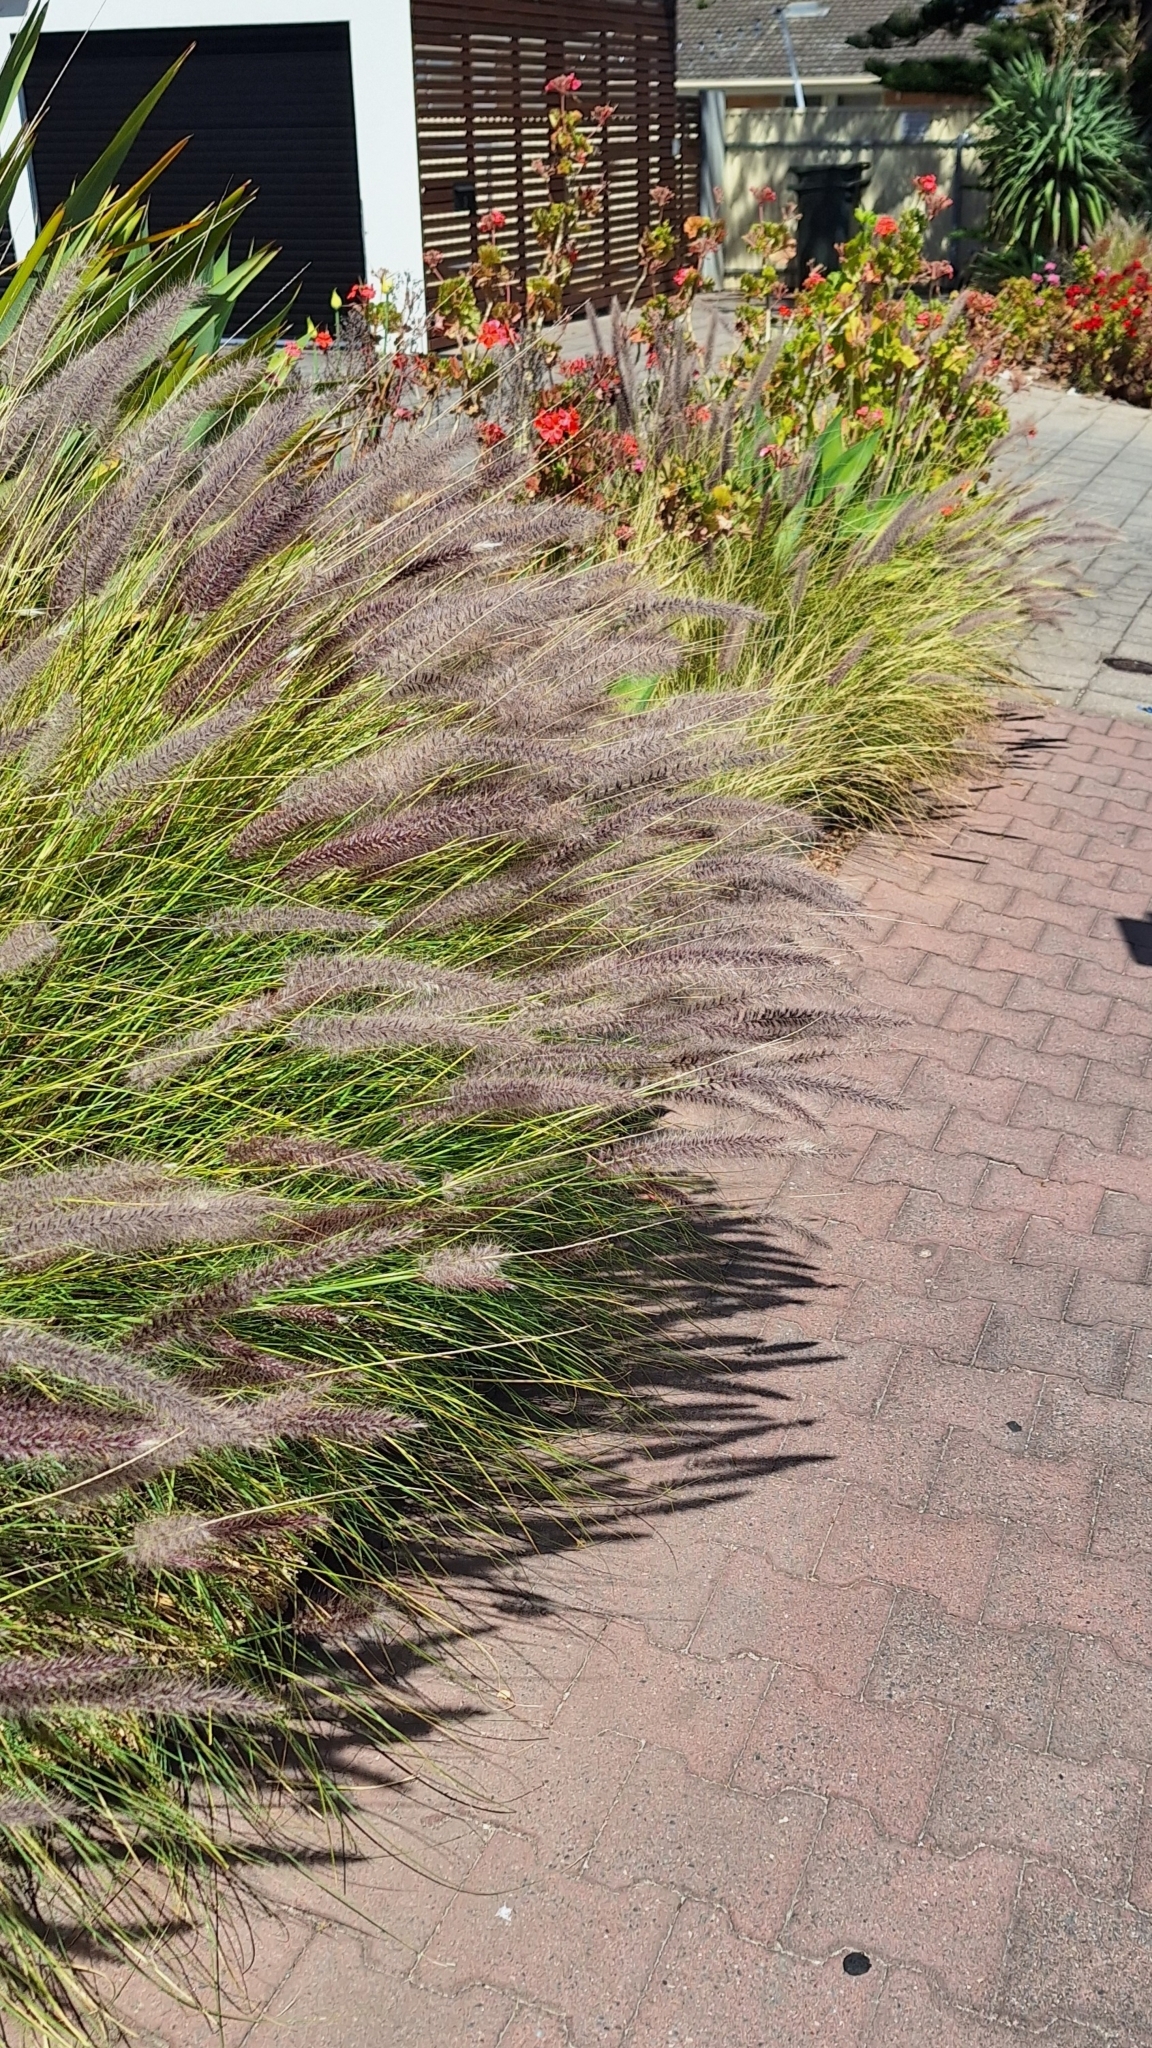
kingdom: Plantae
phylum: Tracheophyta
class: Liliopsida
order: Poales
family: Poaceae
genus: Cenchrus
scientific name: Cenchrus setaceus
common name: Crimson fountaingrass
